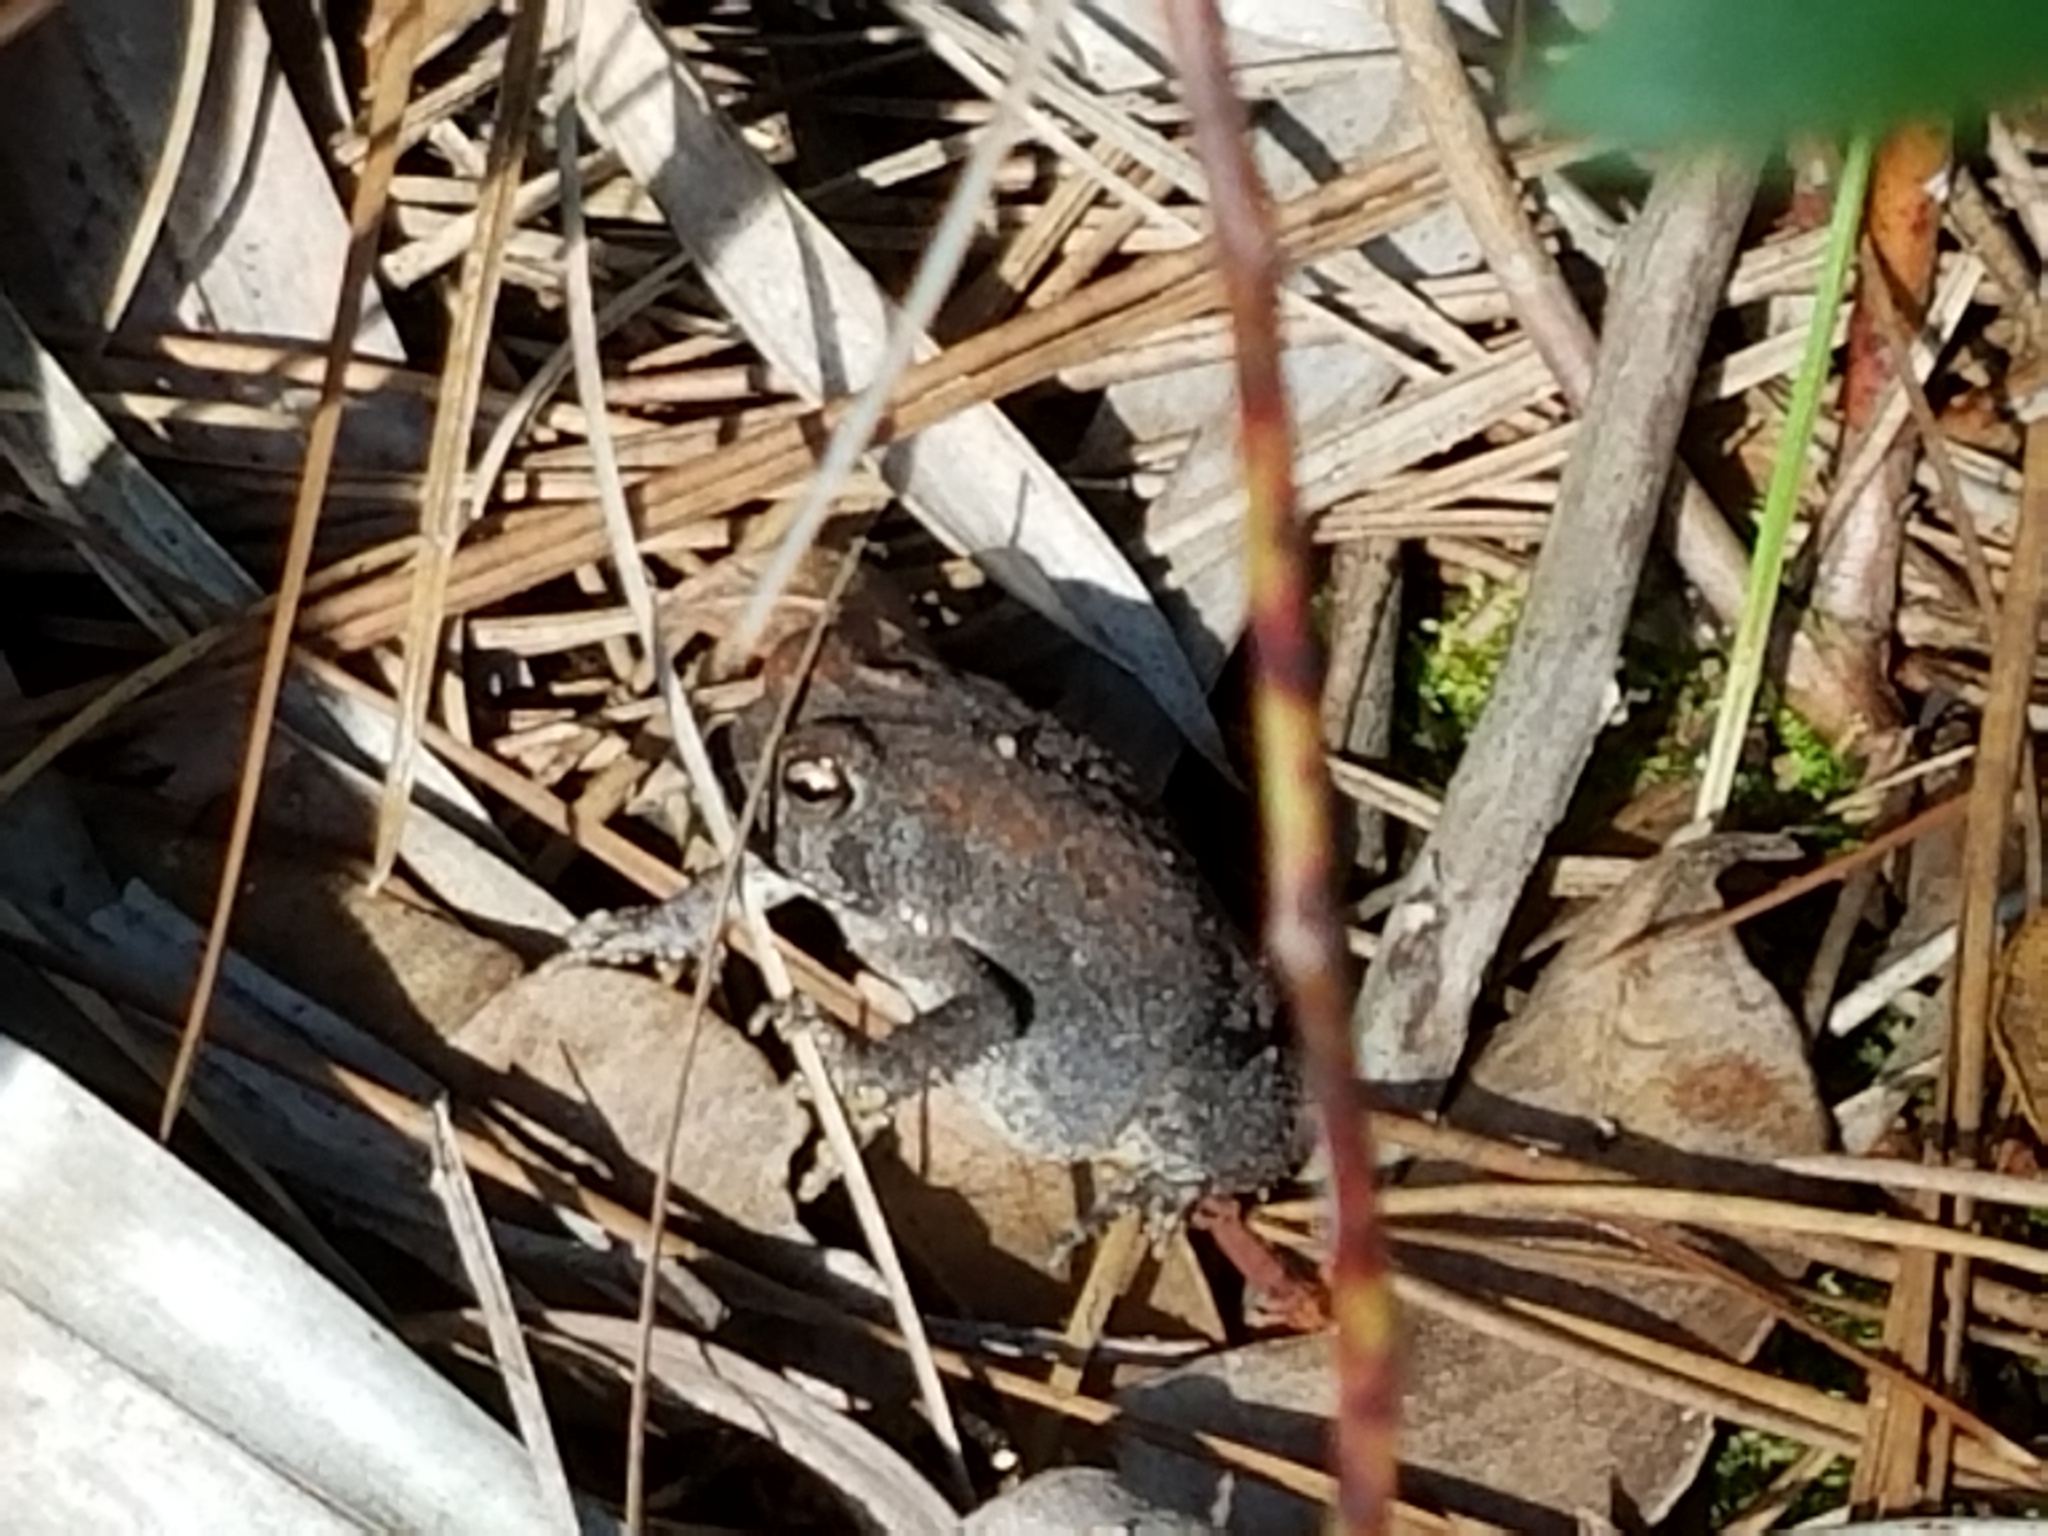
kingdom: Animalia
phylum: Chordata
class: Amphibia
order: Anura
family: Bufonidae
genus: Anaxyrus
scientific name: Anaxyrus terrestris
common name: Southern toad
